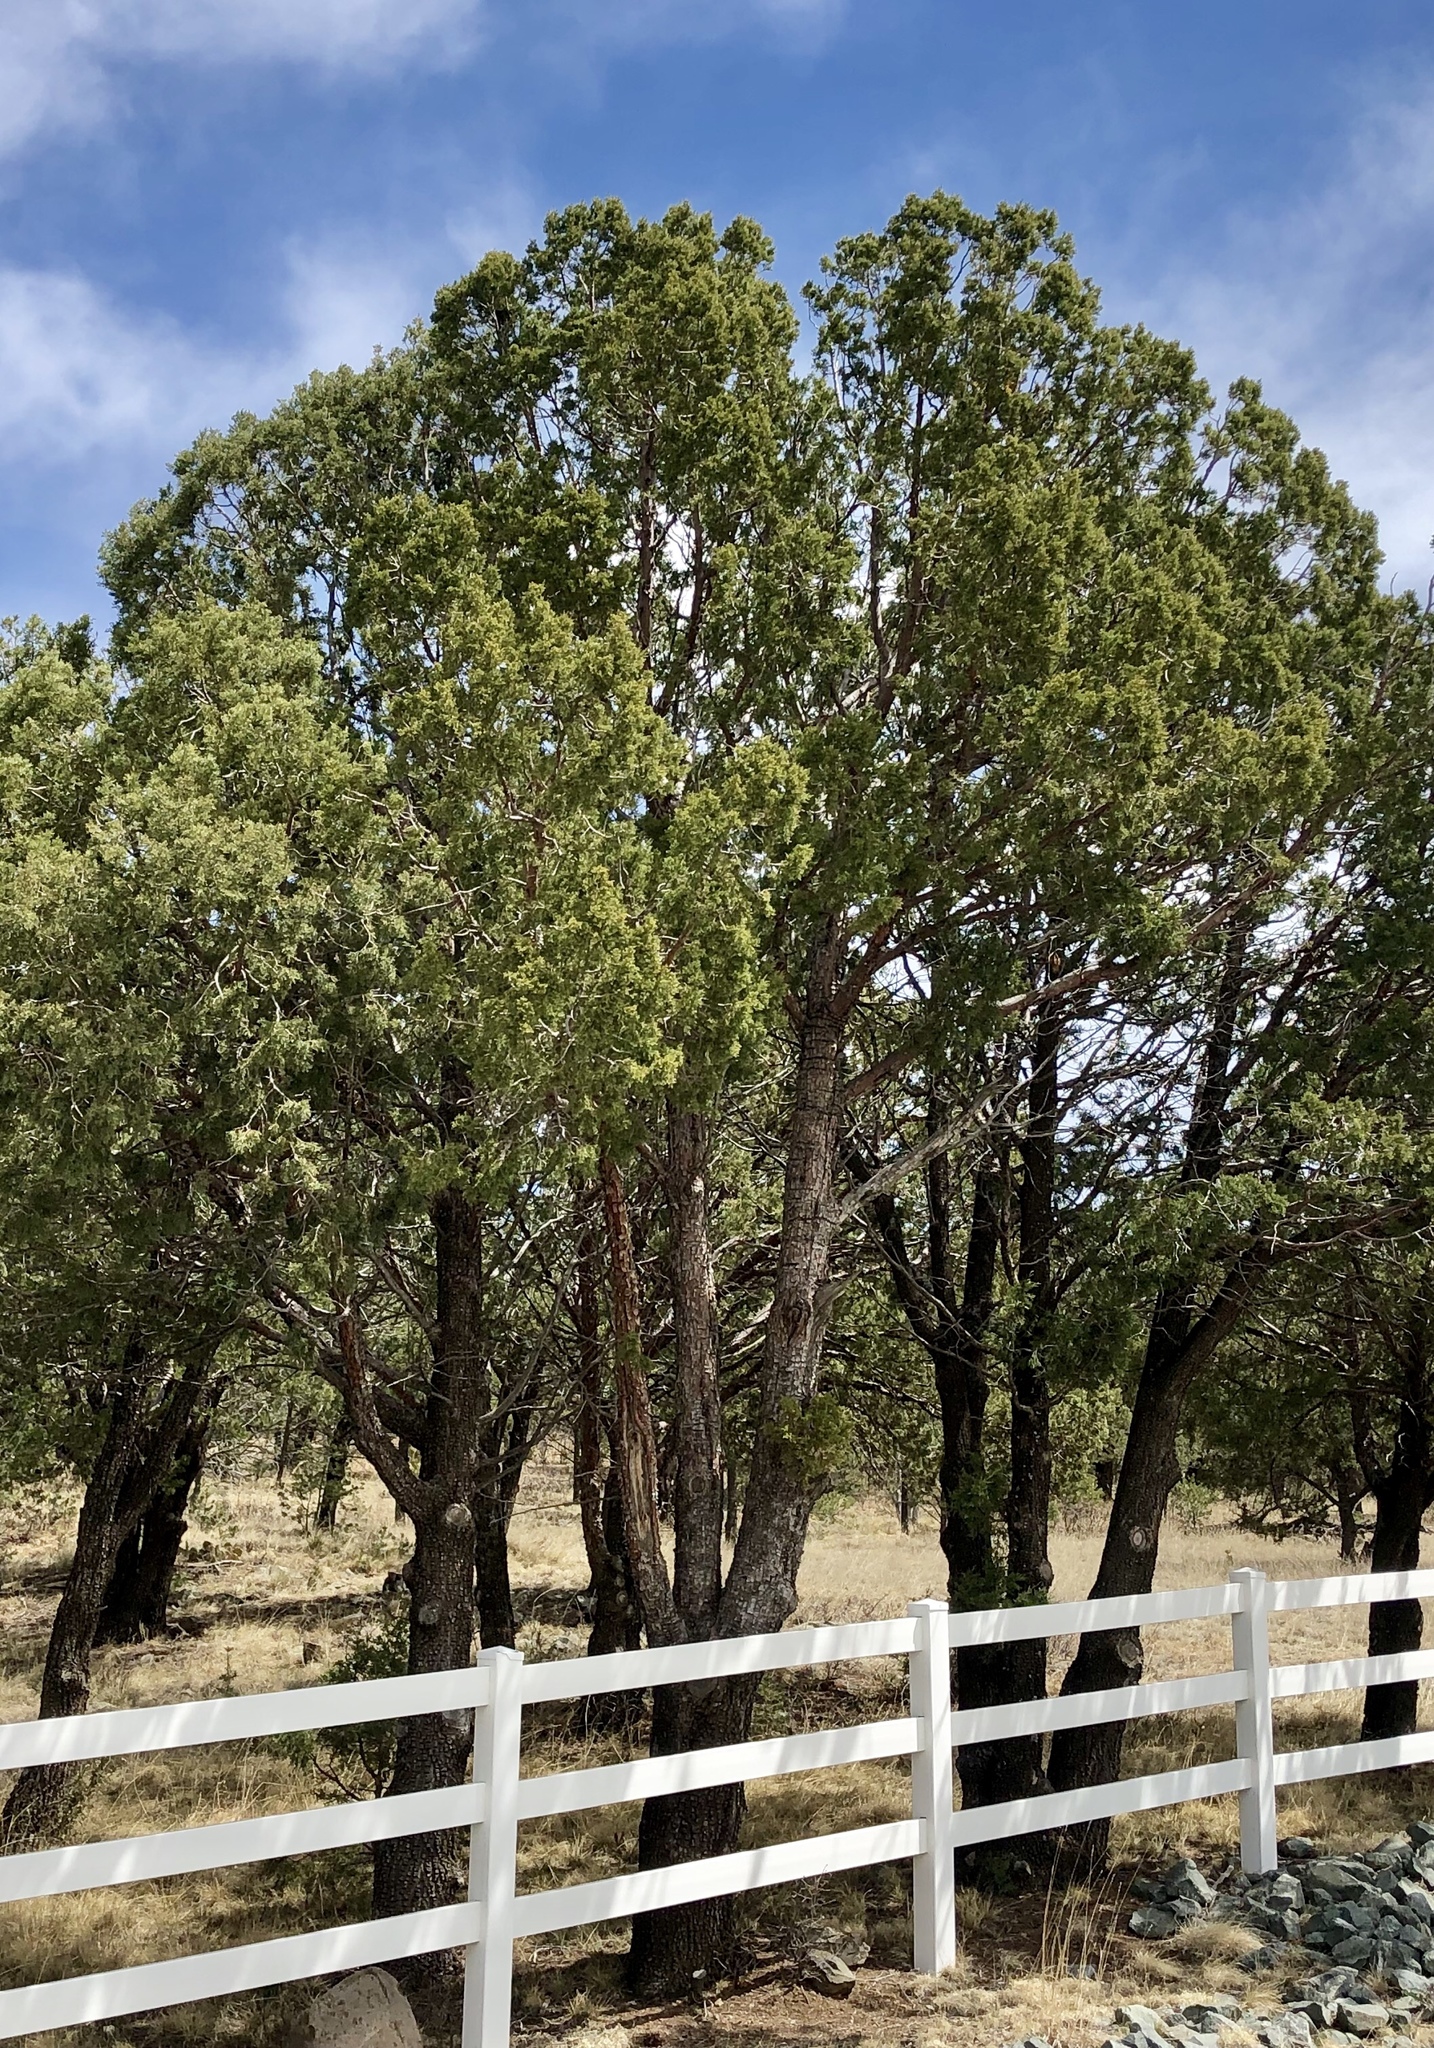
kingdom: Plantae
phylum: Tracheophyta
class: Pinopsida
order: Pinales
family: Cupressaceae
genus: Juniperus
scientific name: Juniperus deppeana
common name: Alligator juniper
